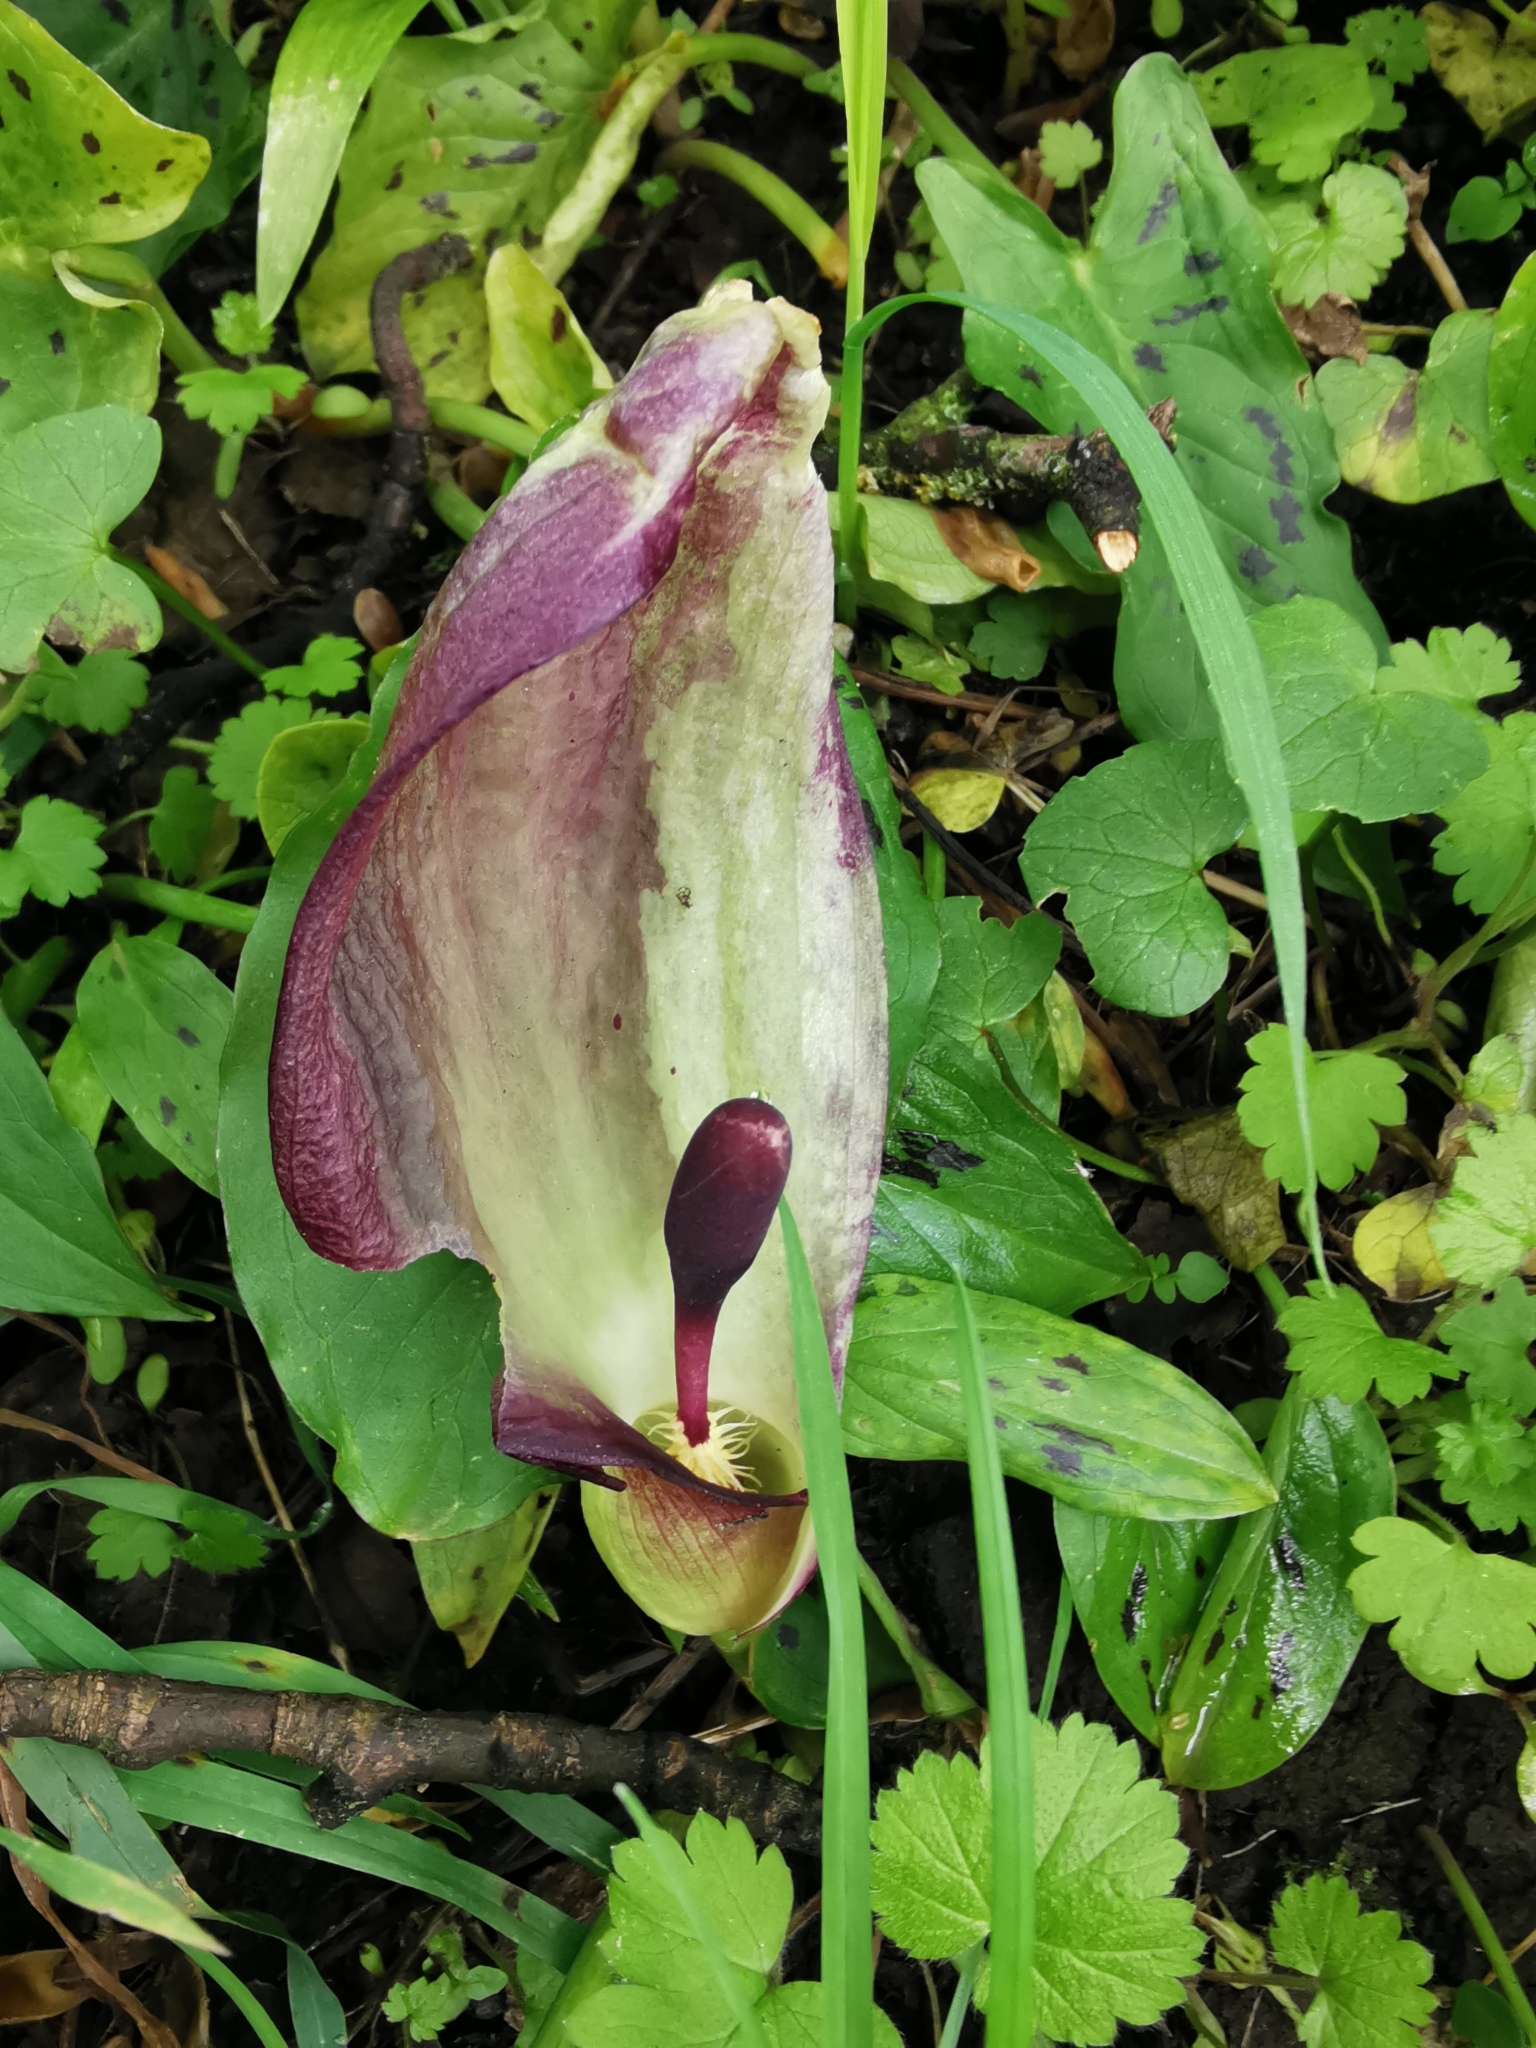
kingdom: Plantae
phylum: Tracheophyta
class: Liliopsida
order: Alismatales
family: Araceae
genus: Arum
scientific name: Arum maculatum
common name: Lords-and-ladies
